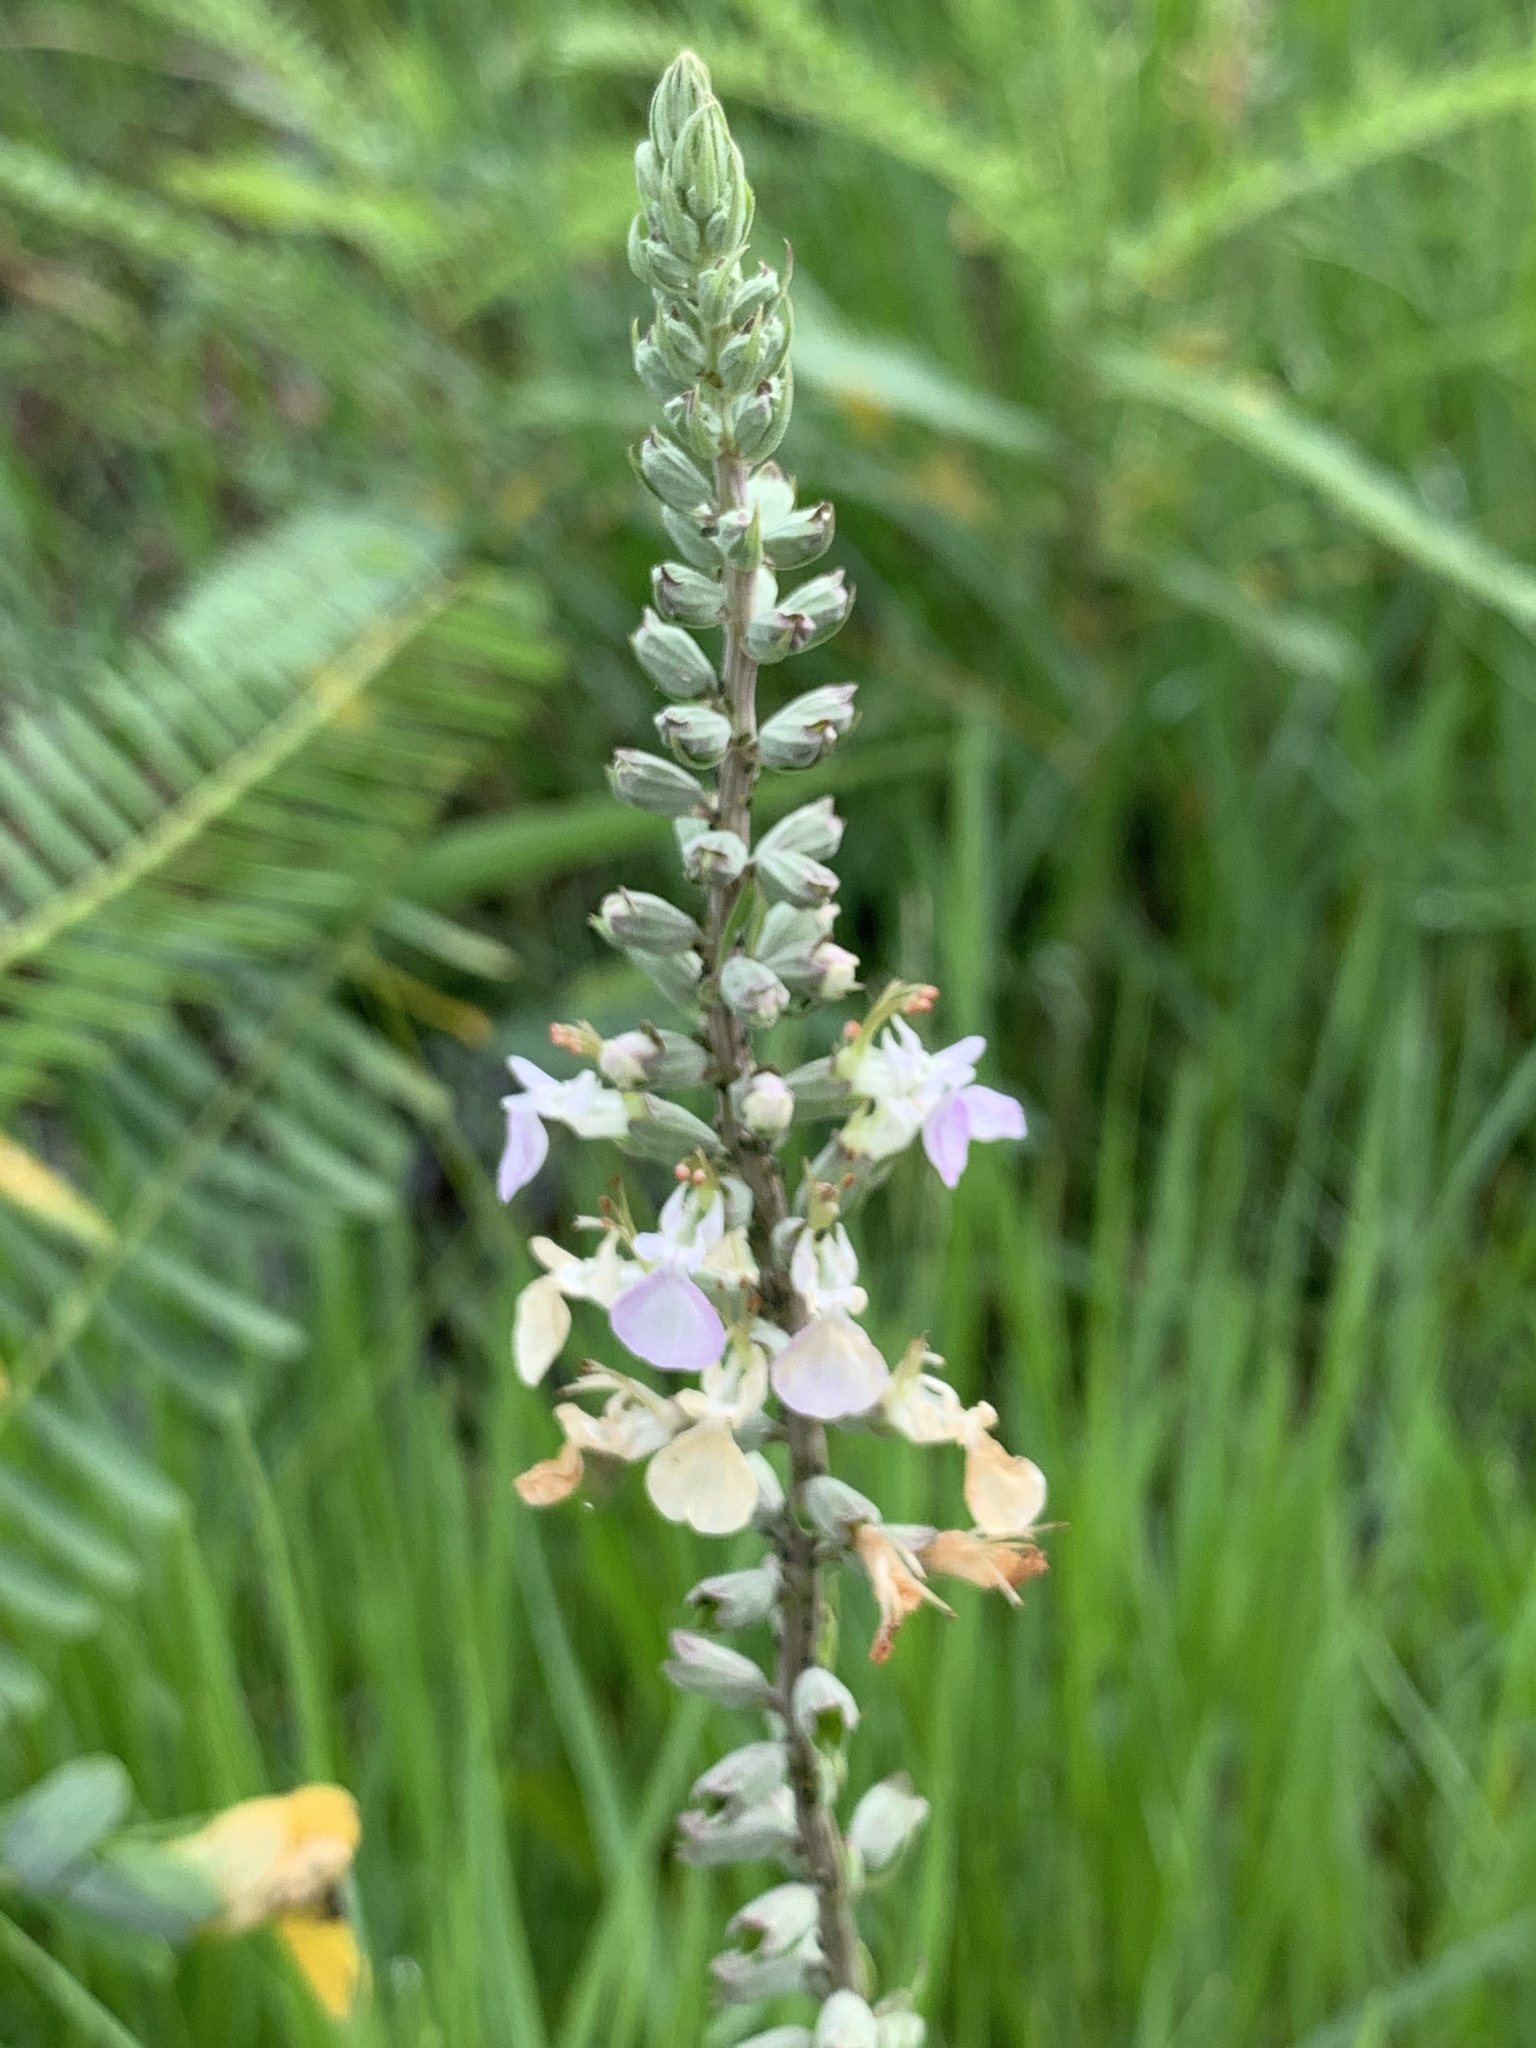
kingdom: Plantae
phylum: Tracheophyta
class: Magnoliopsida
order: Lamiales
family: Lamiaceae
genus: Teucrium
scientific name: Teucrium canadense
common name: American germander
